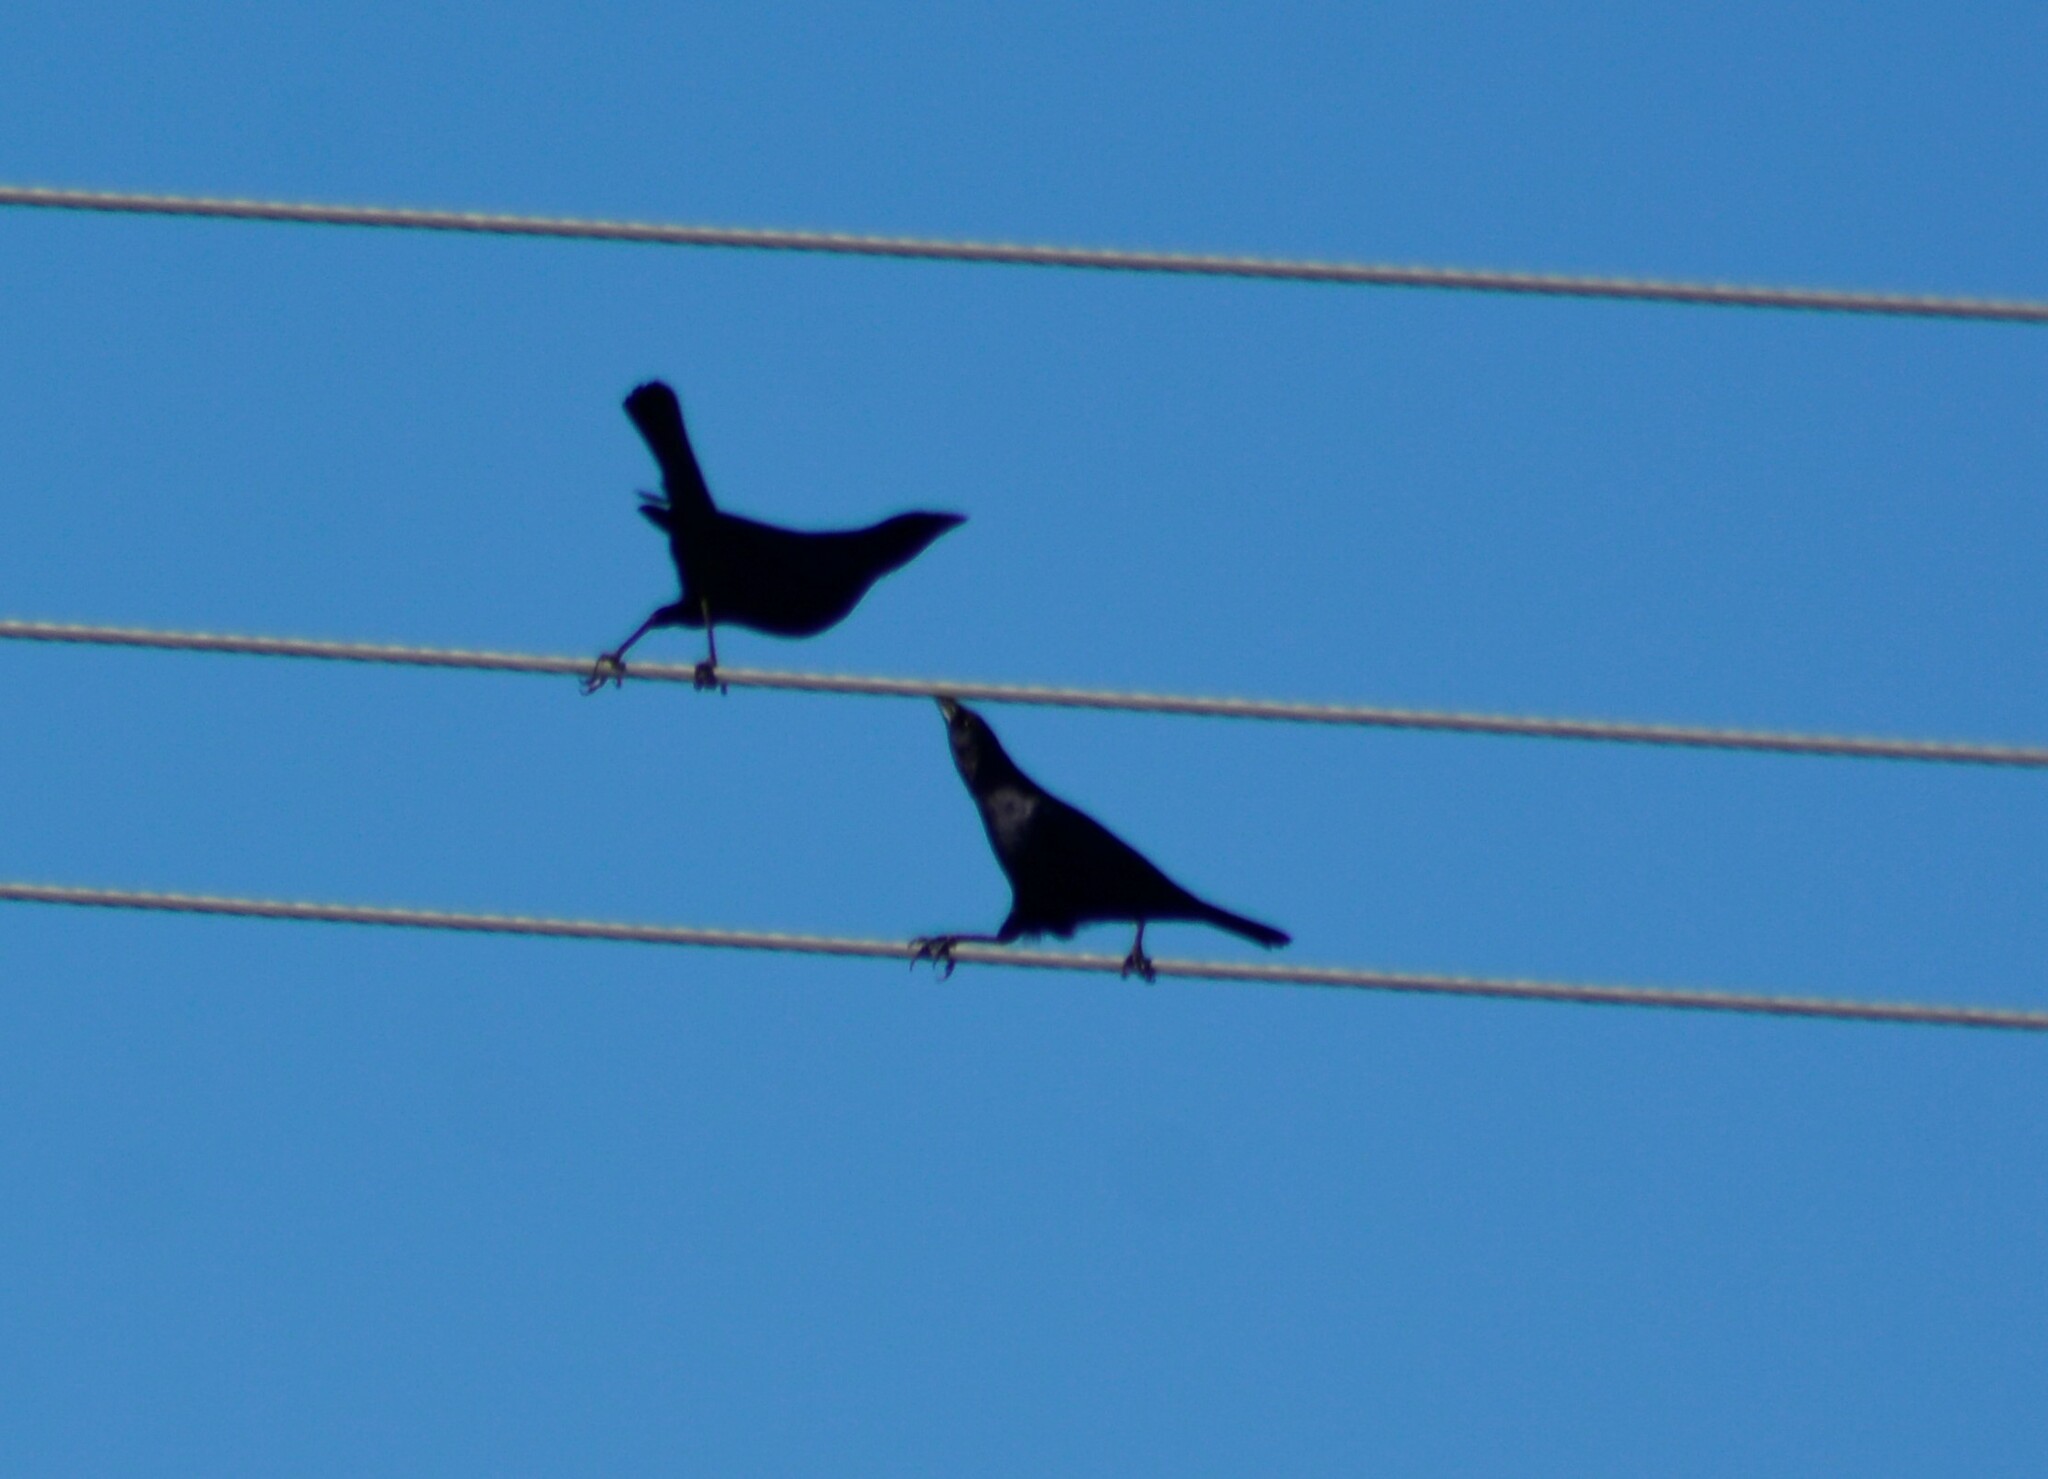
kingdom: Animalia
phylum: Chordata
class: Aves
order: Passeriformes
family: Icteridae
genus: Molothrus
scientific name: Molothrus bonariensis
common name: Shiny cowbird
